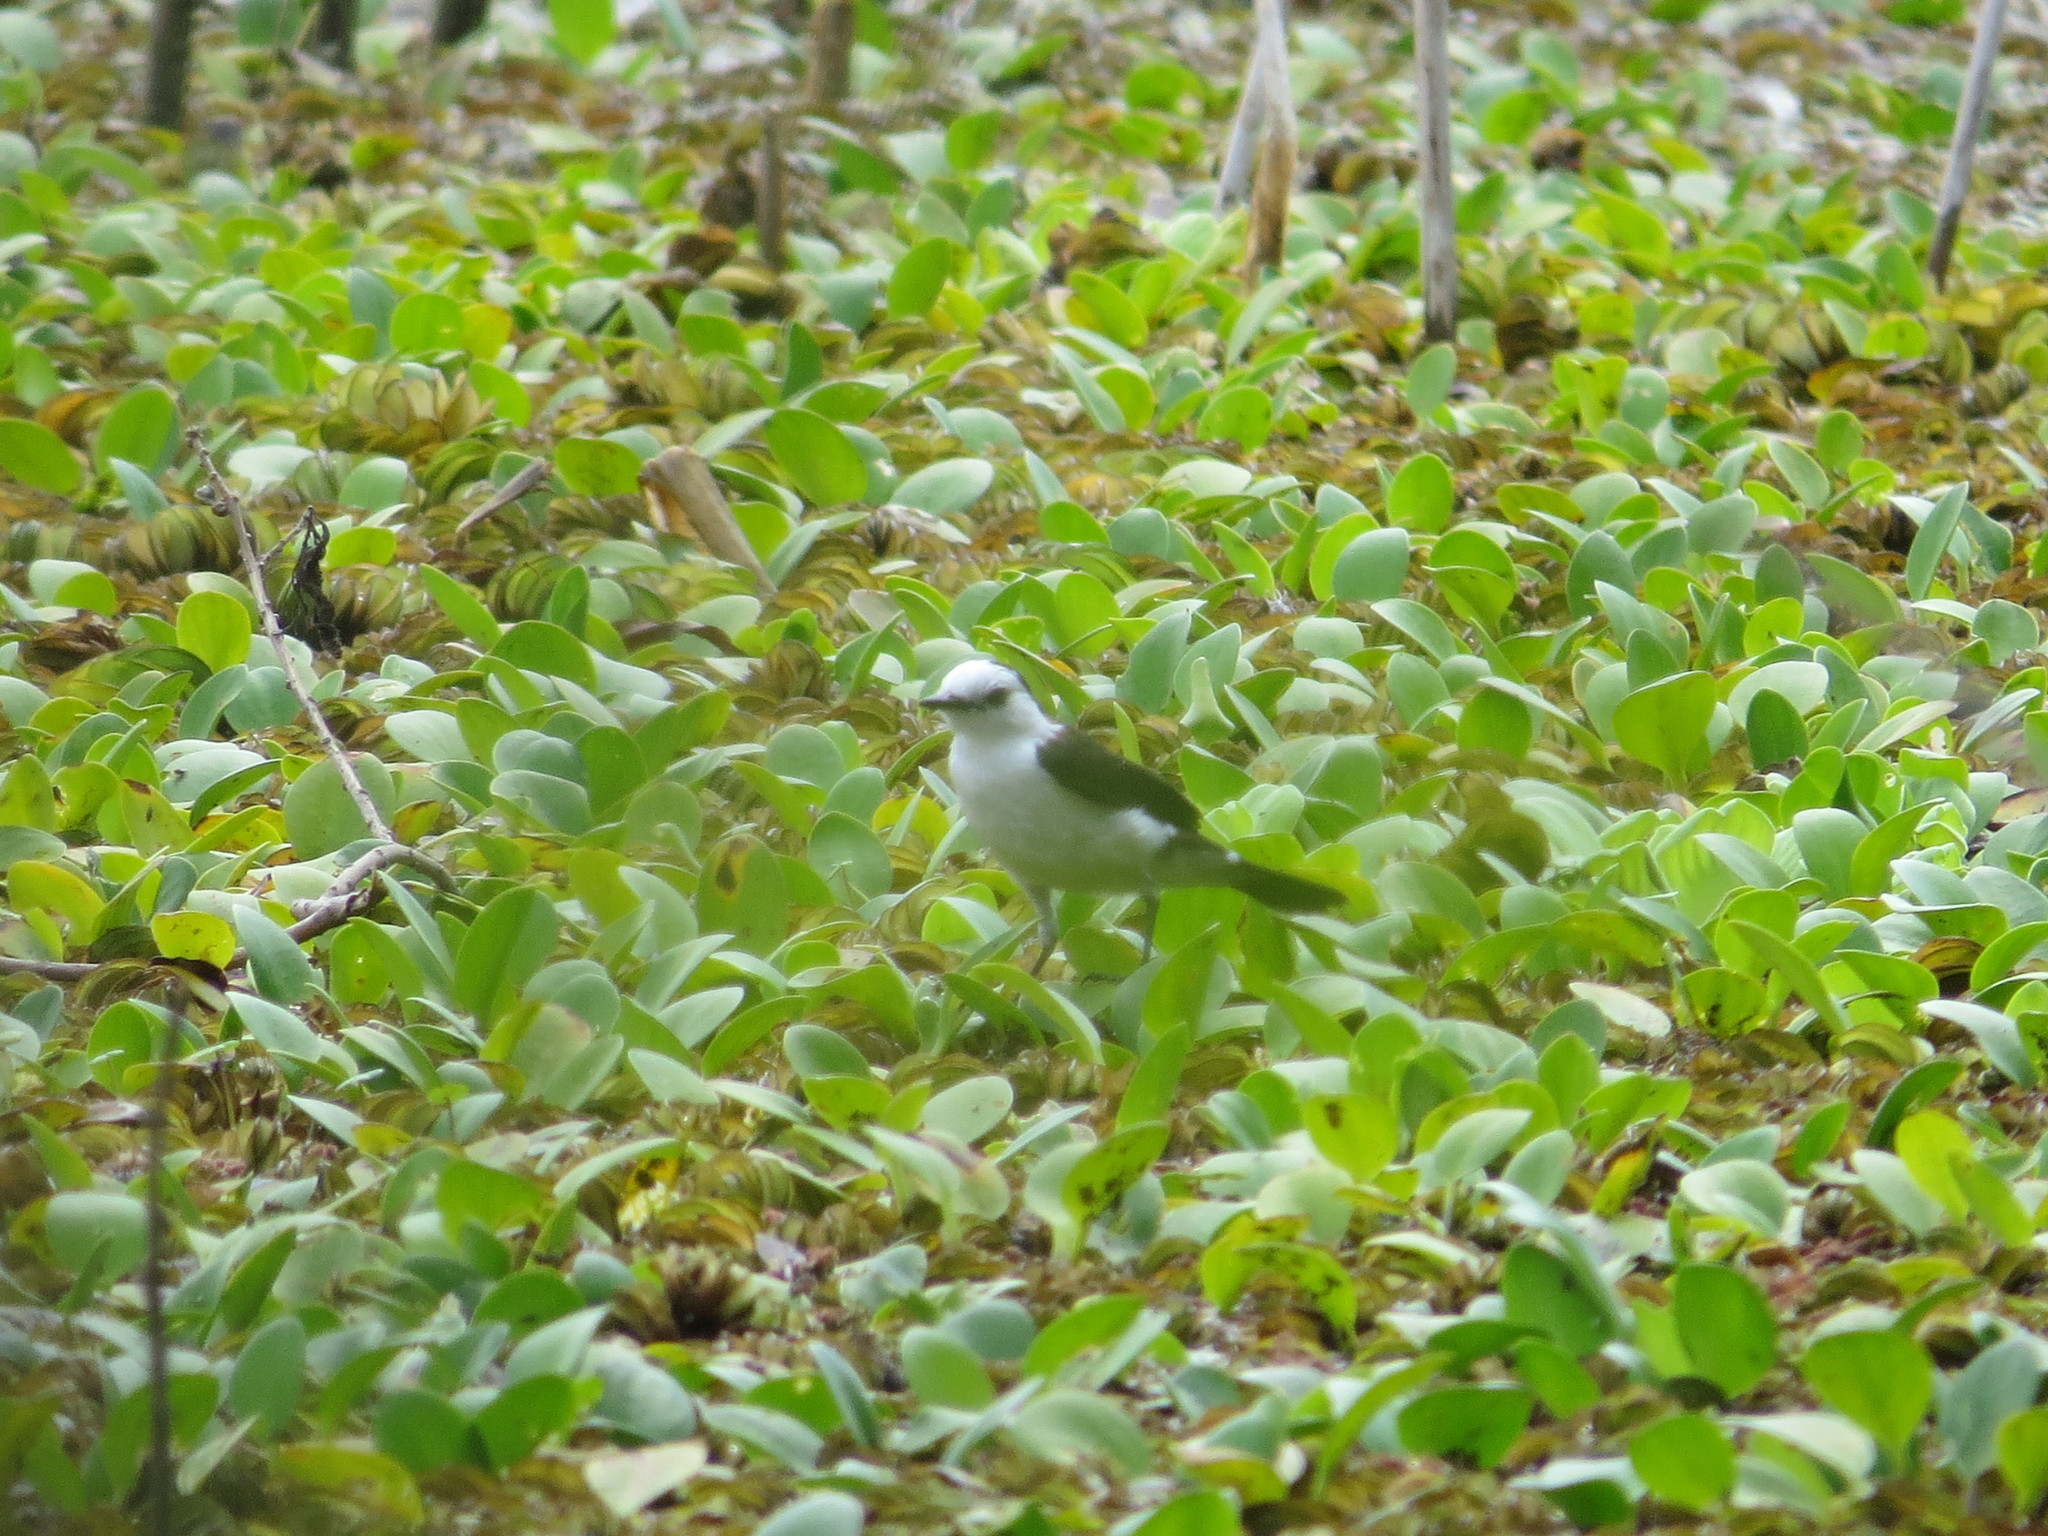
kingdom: Animalia
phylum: Chordata
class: Aves
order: Passeriformes
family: Tyrannidae
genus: Fluvicola
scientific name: Fluvicola pica
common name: Pied water-tyrant
